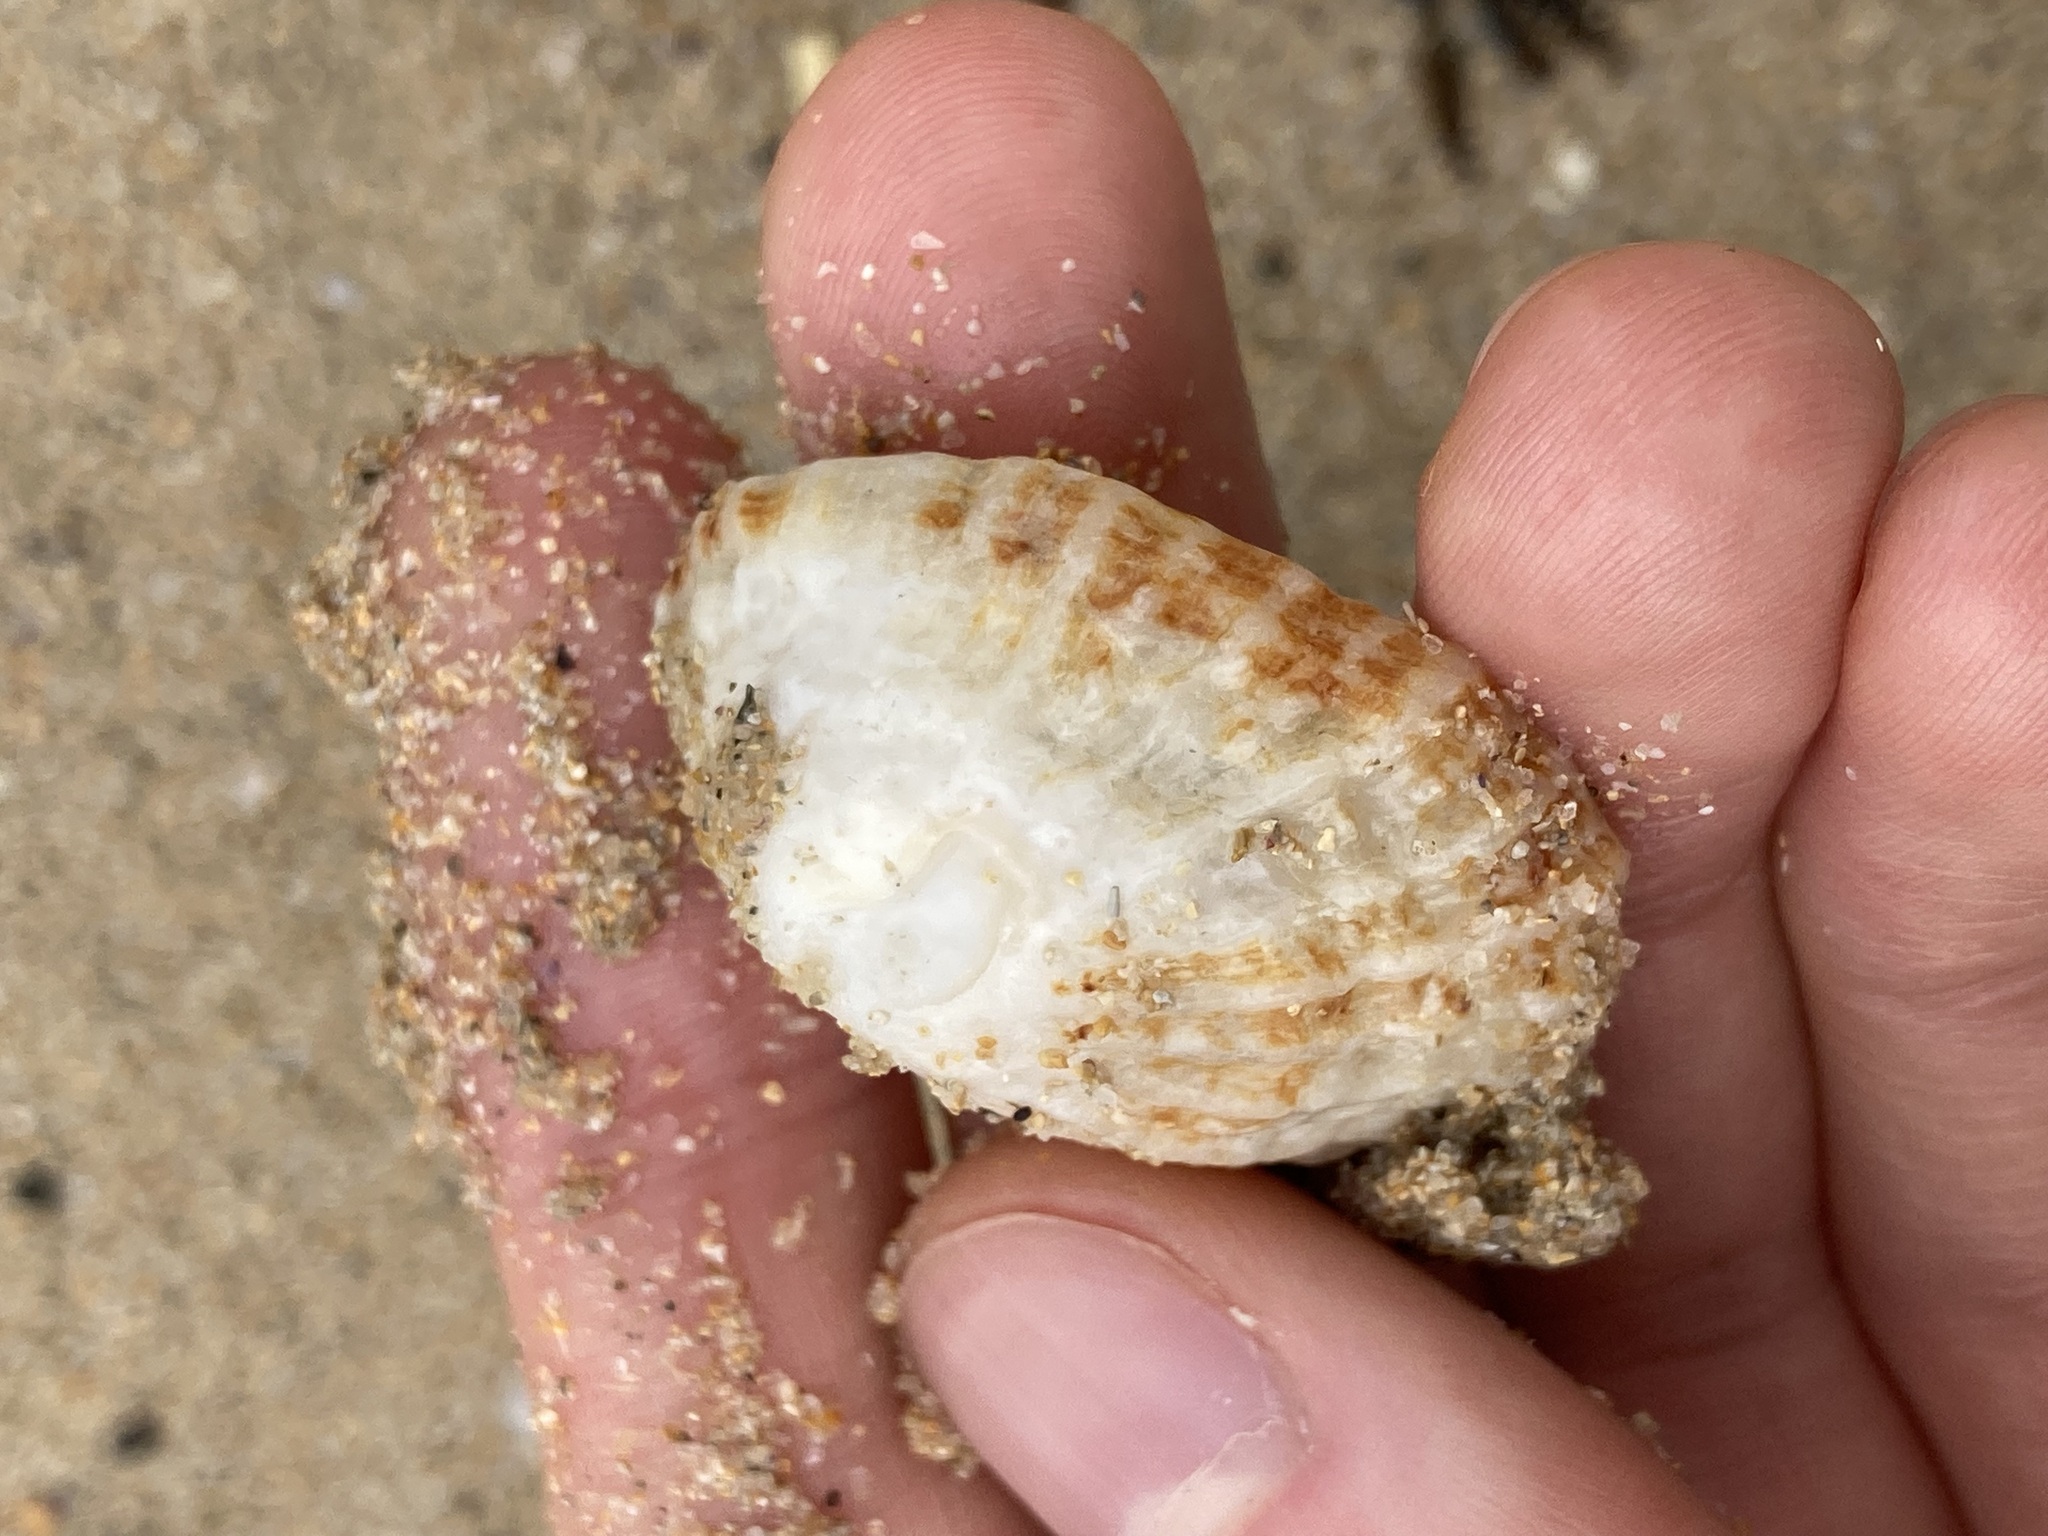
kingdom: Animalia
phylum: Mollusca
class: Gastropoda
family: Patellidae
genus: Scutellastra
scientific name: Scutellastra peronii
